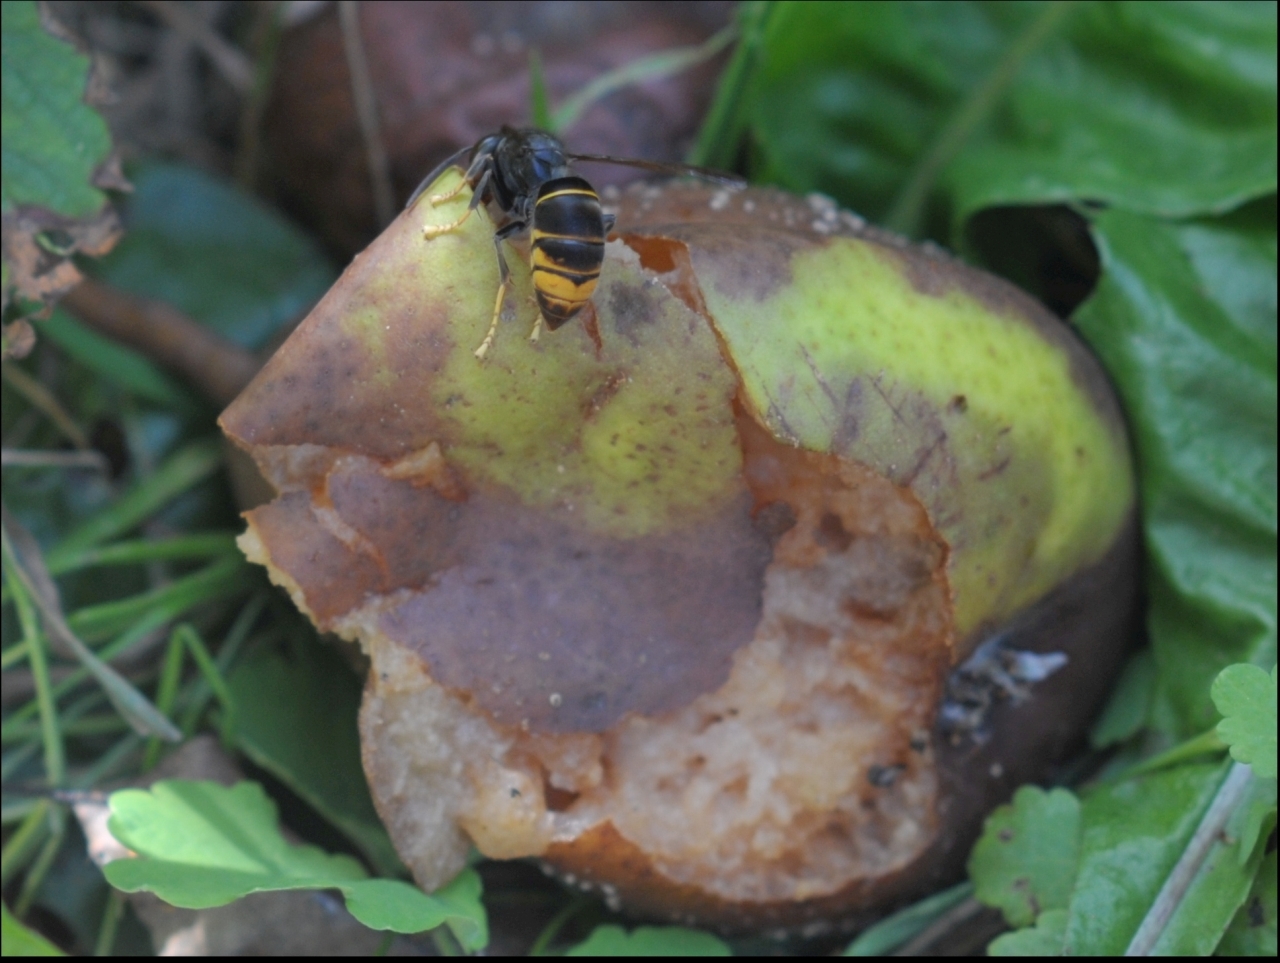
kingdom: Animalia
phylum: Arthropoda
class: Insecta
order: Hymenoptera
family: Vespidae
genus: Vespa
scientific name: Vespa velutina
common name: Asian hornet
